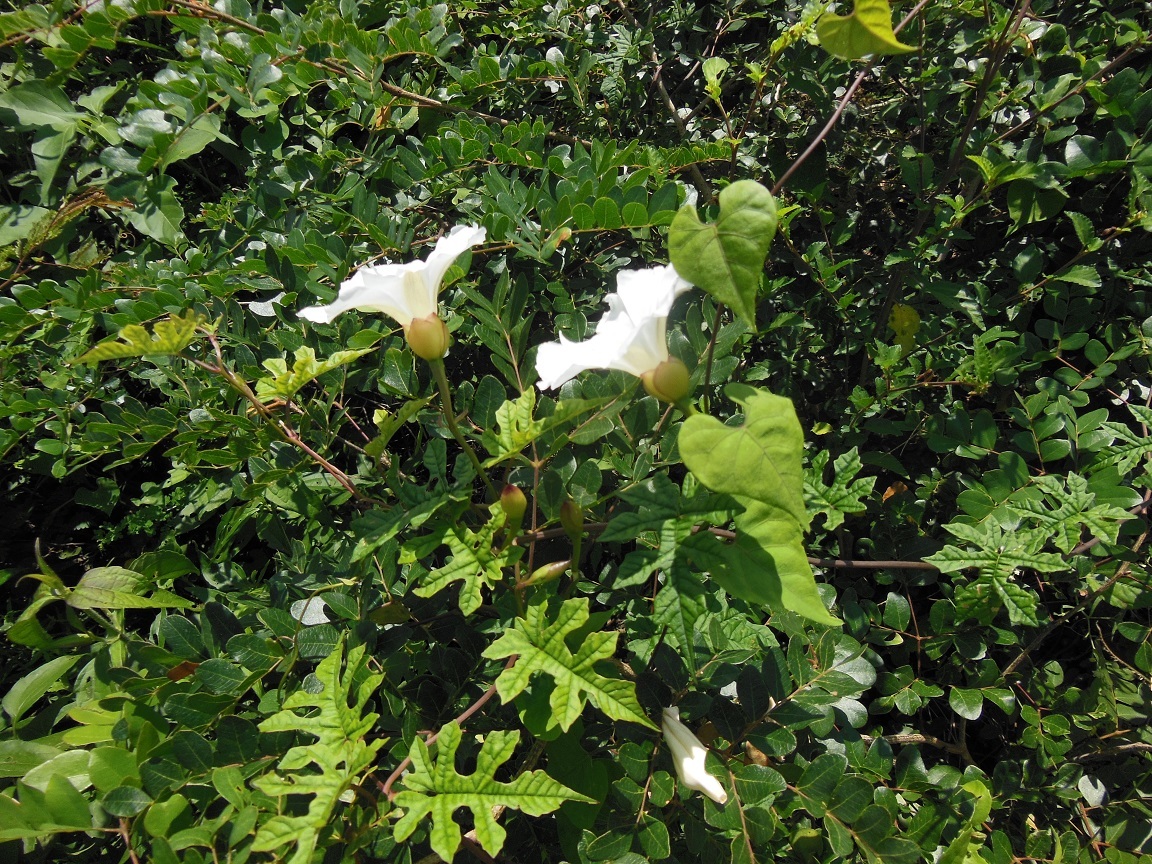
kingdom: Plantae
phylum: Tracheophyta
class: Magnoliopsida
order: Solanales
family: Convolvulaceae
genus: Operculina
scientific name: Operculina pinnatifida
